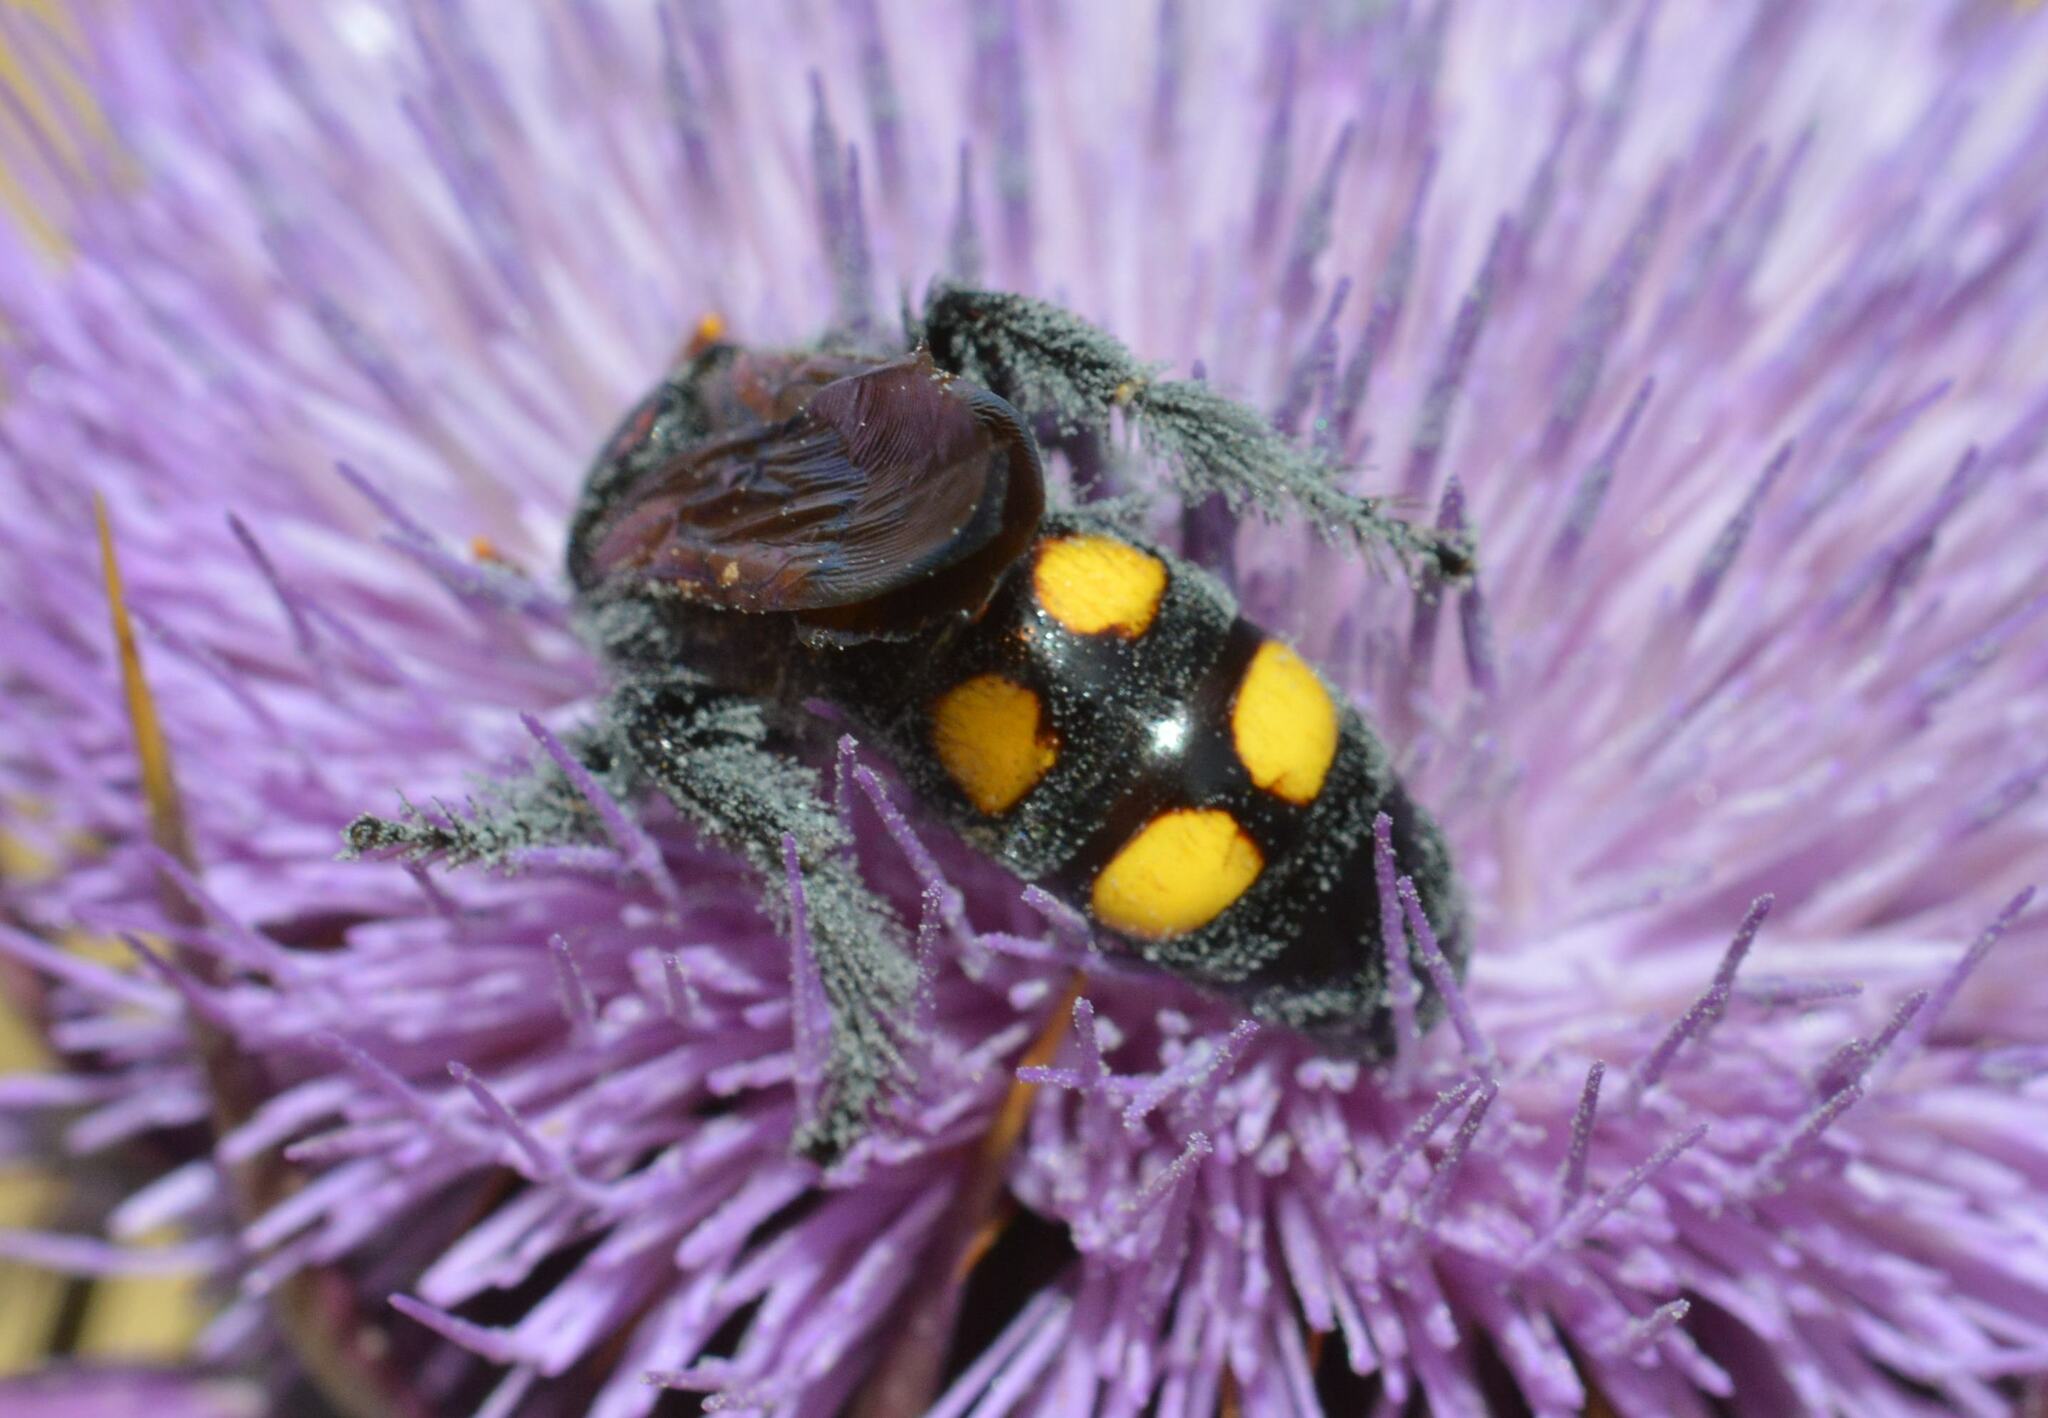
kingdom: Animalia
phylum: Arthropoda
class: Insecta
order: Hymenoptera
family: Scoliidae
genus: Megascolia
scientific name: Megascolia bidens
